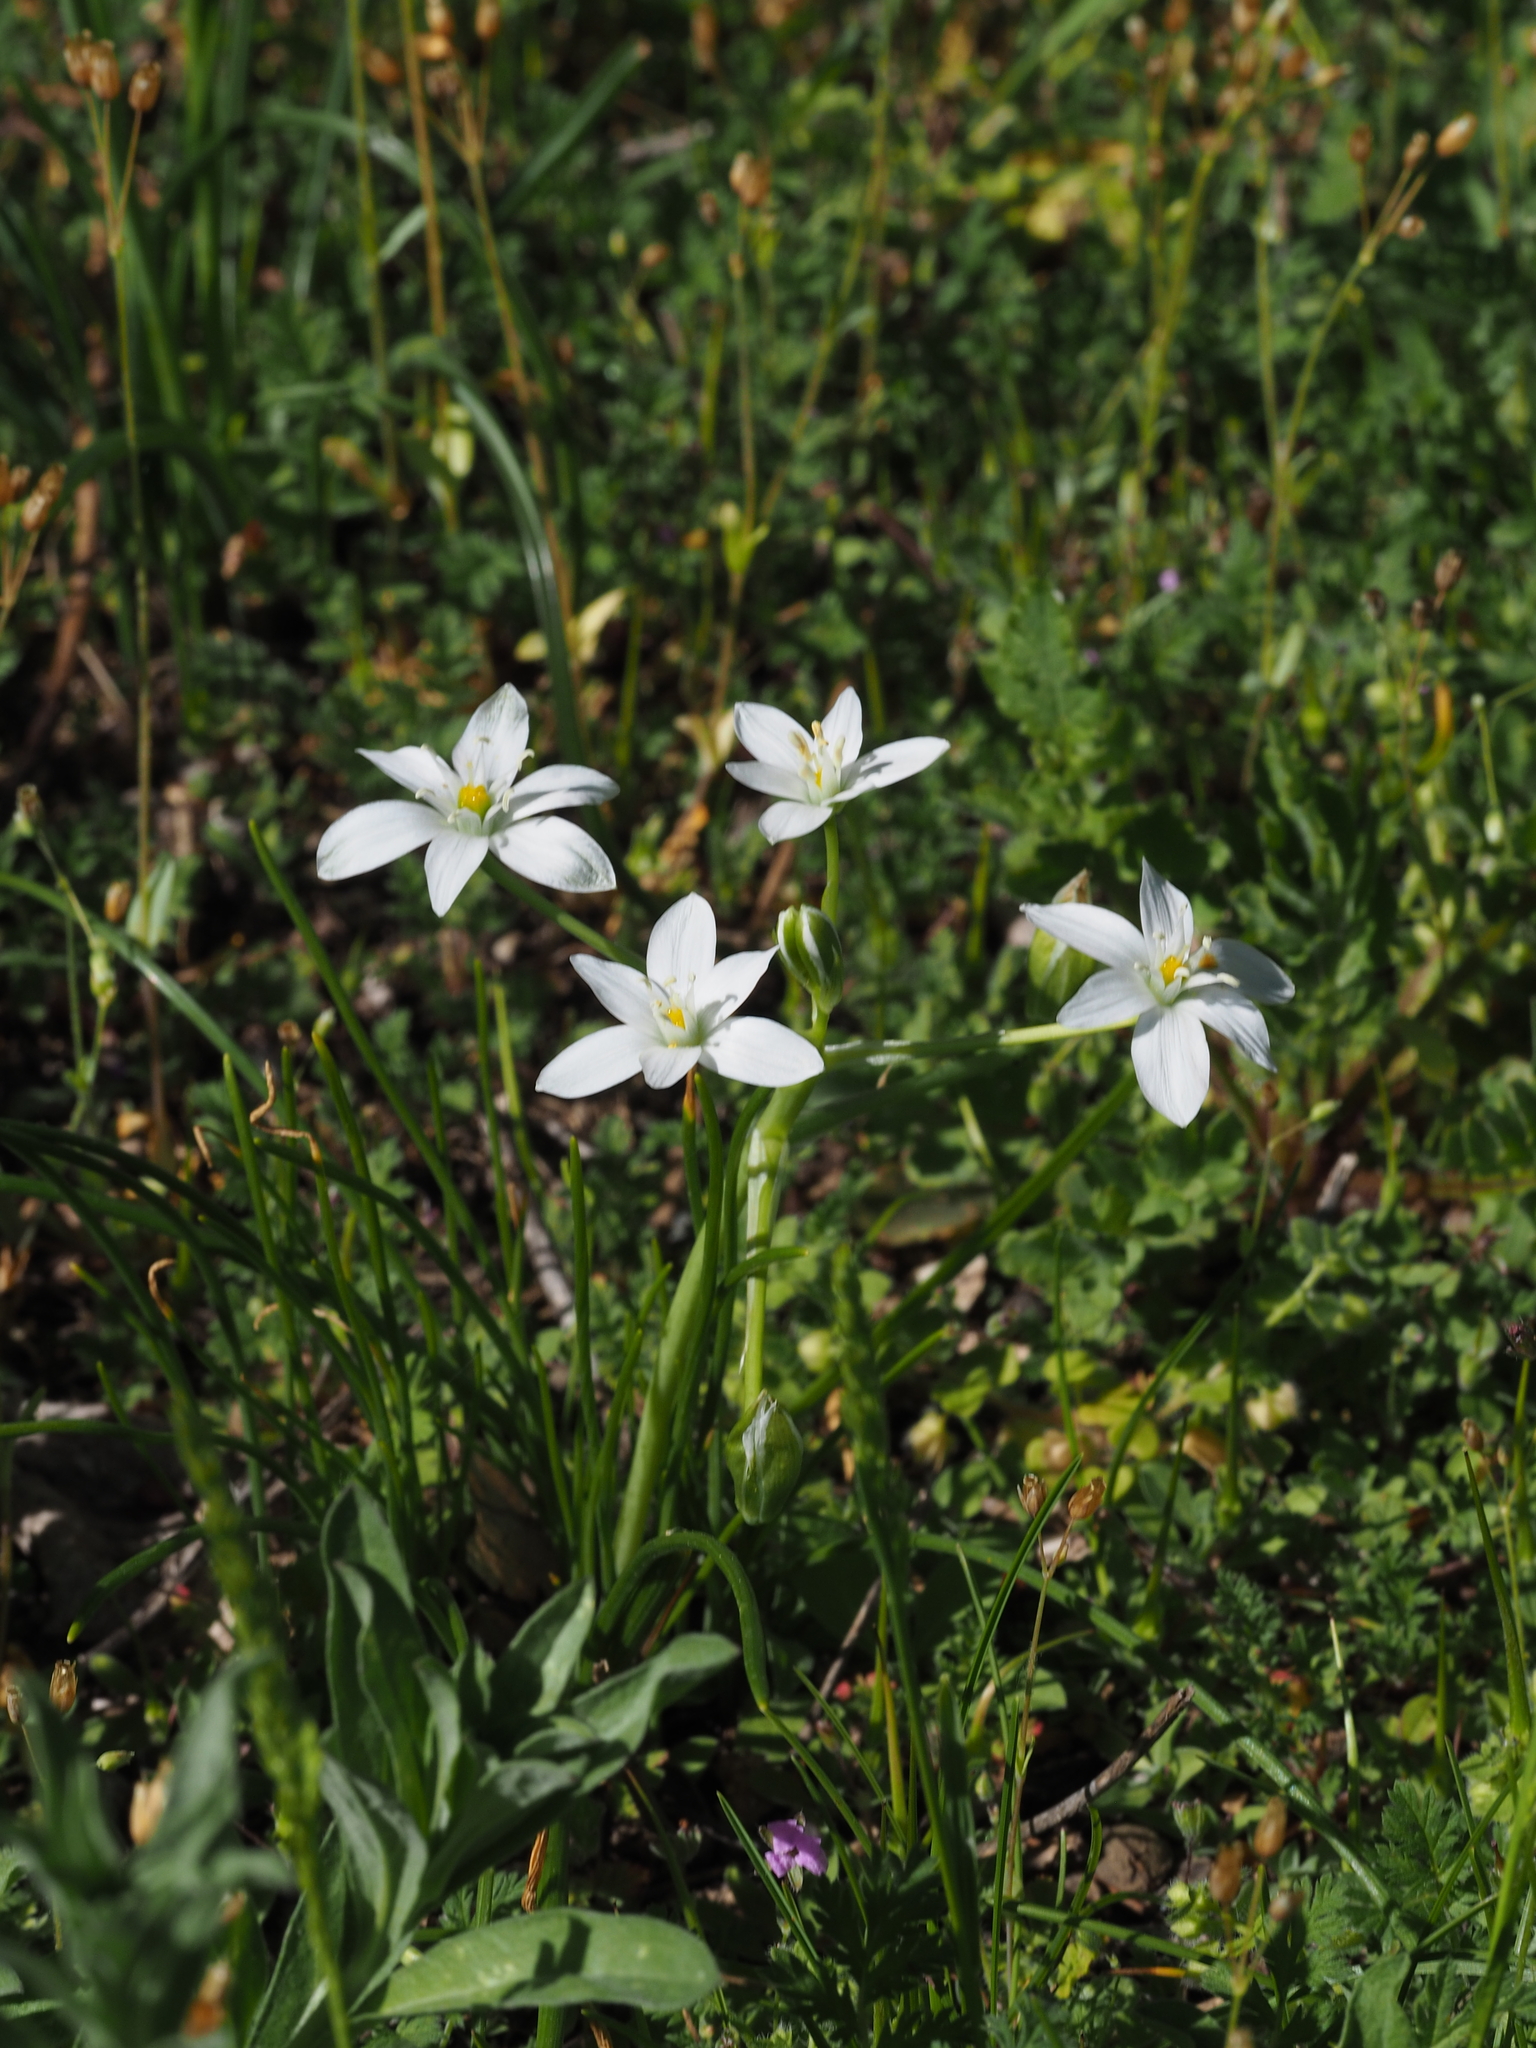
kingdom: Plantae
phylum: Tracheophyta
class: Liliopsida
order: Asparagales
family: Asparagaceae
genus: Ornithogalum
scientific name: Ornithogalum orthophyllum
